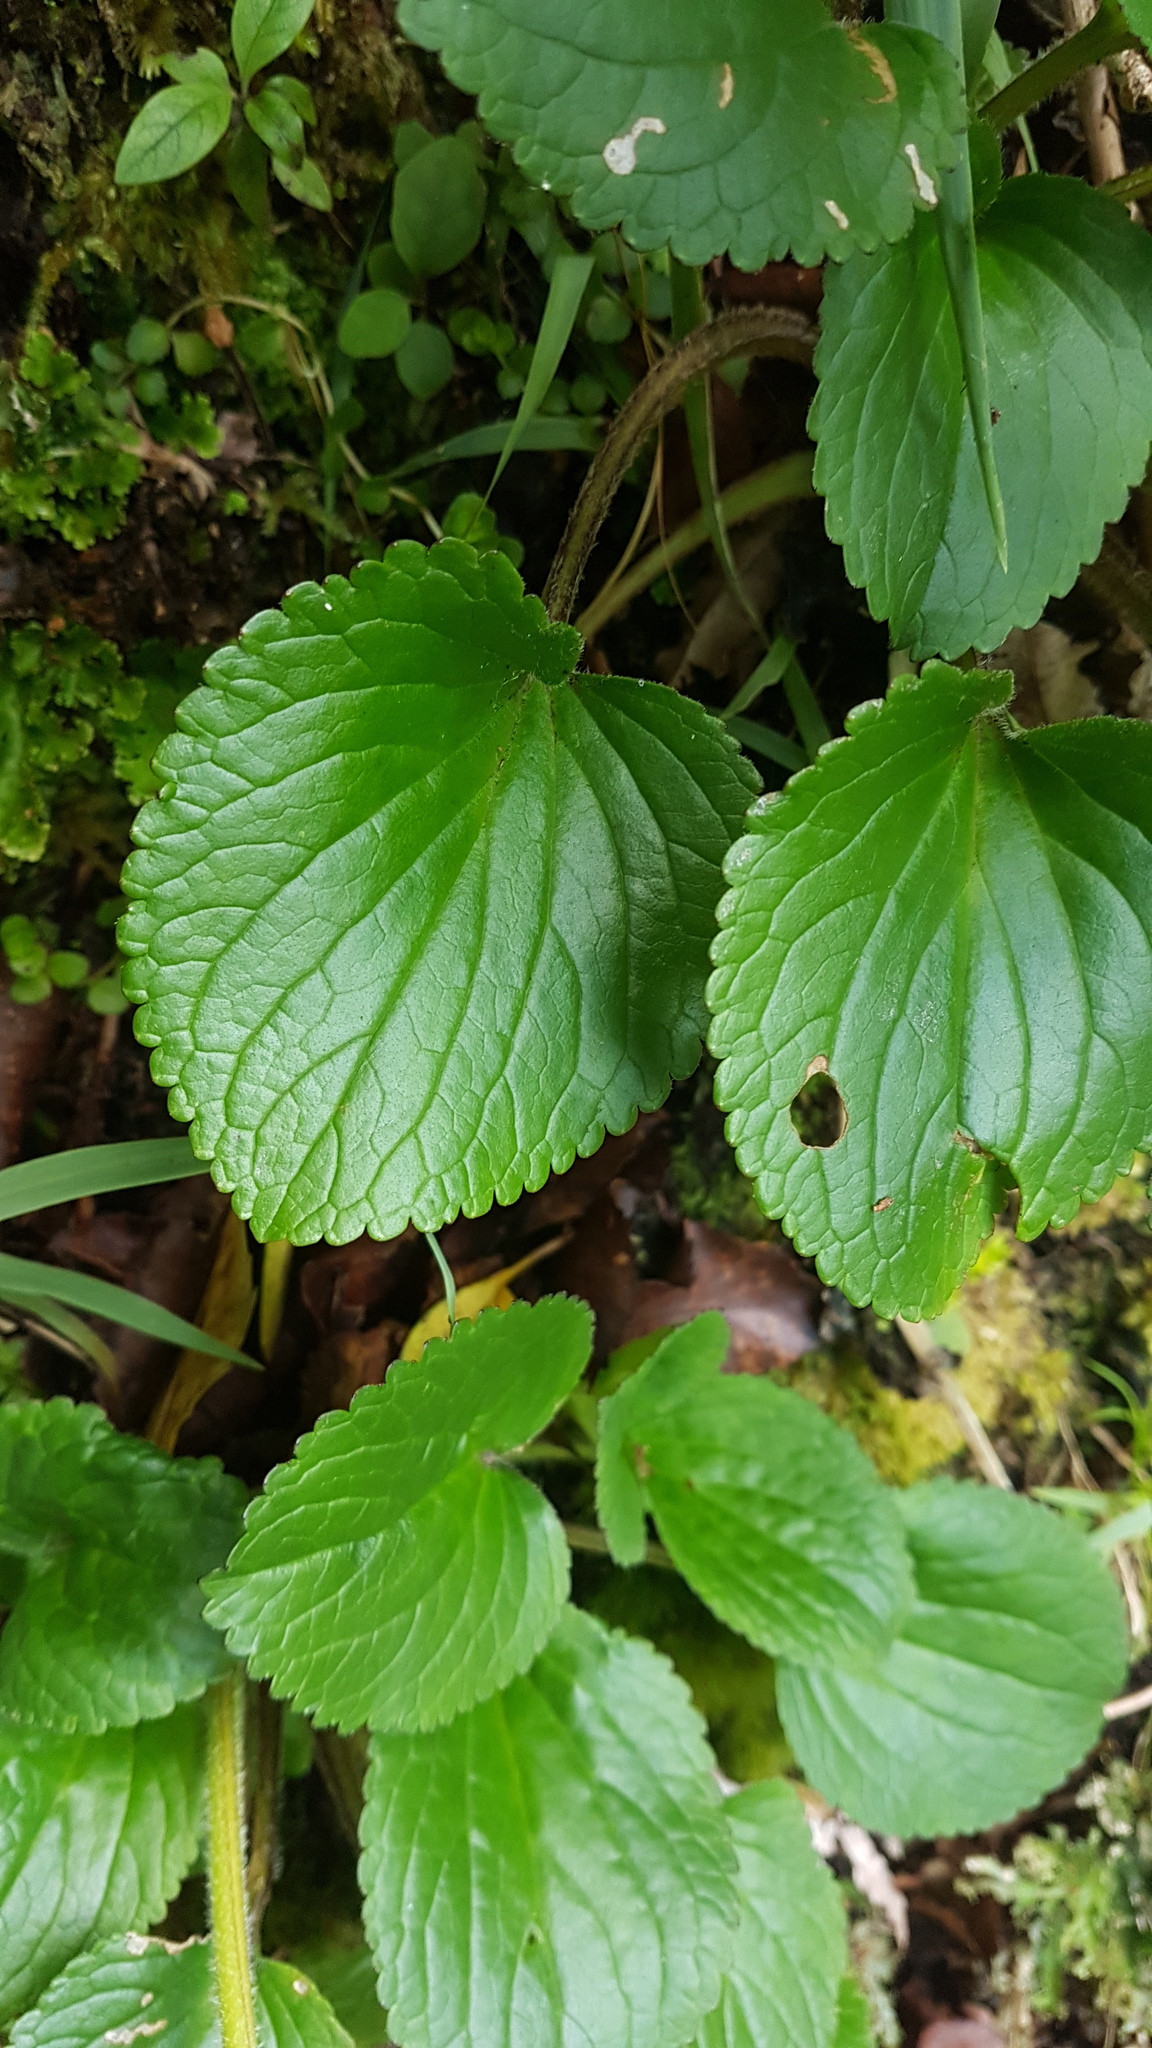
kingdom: Plantae
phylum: Tracheophyta
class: Magnoliopsida
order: Lamiales
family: Plantaginaceae
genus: Ourisia
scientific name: Ourisia macrophylla
